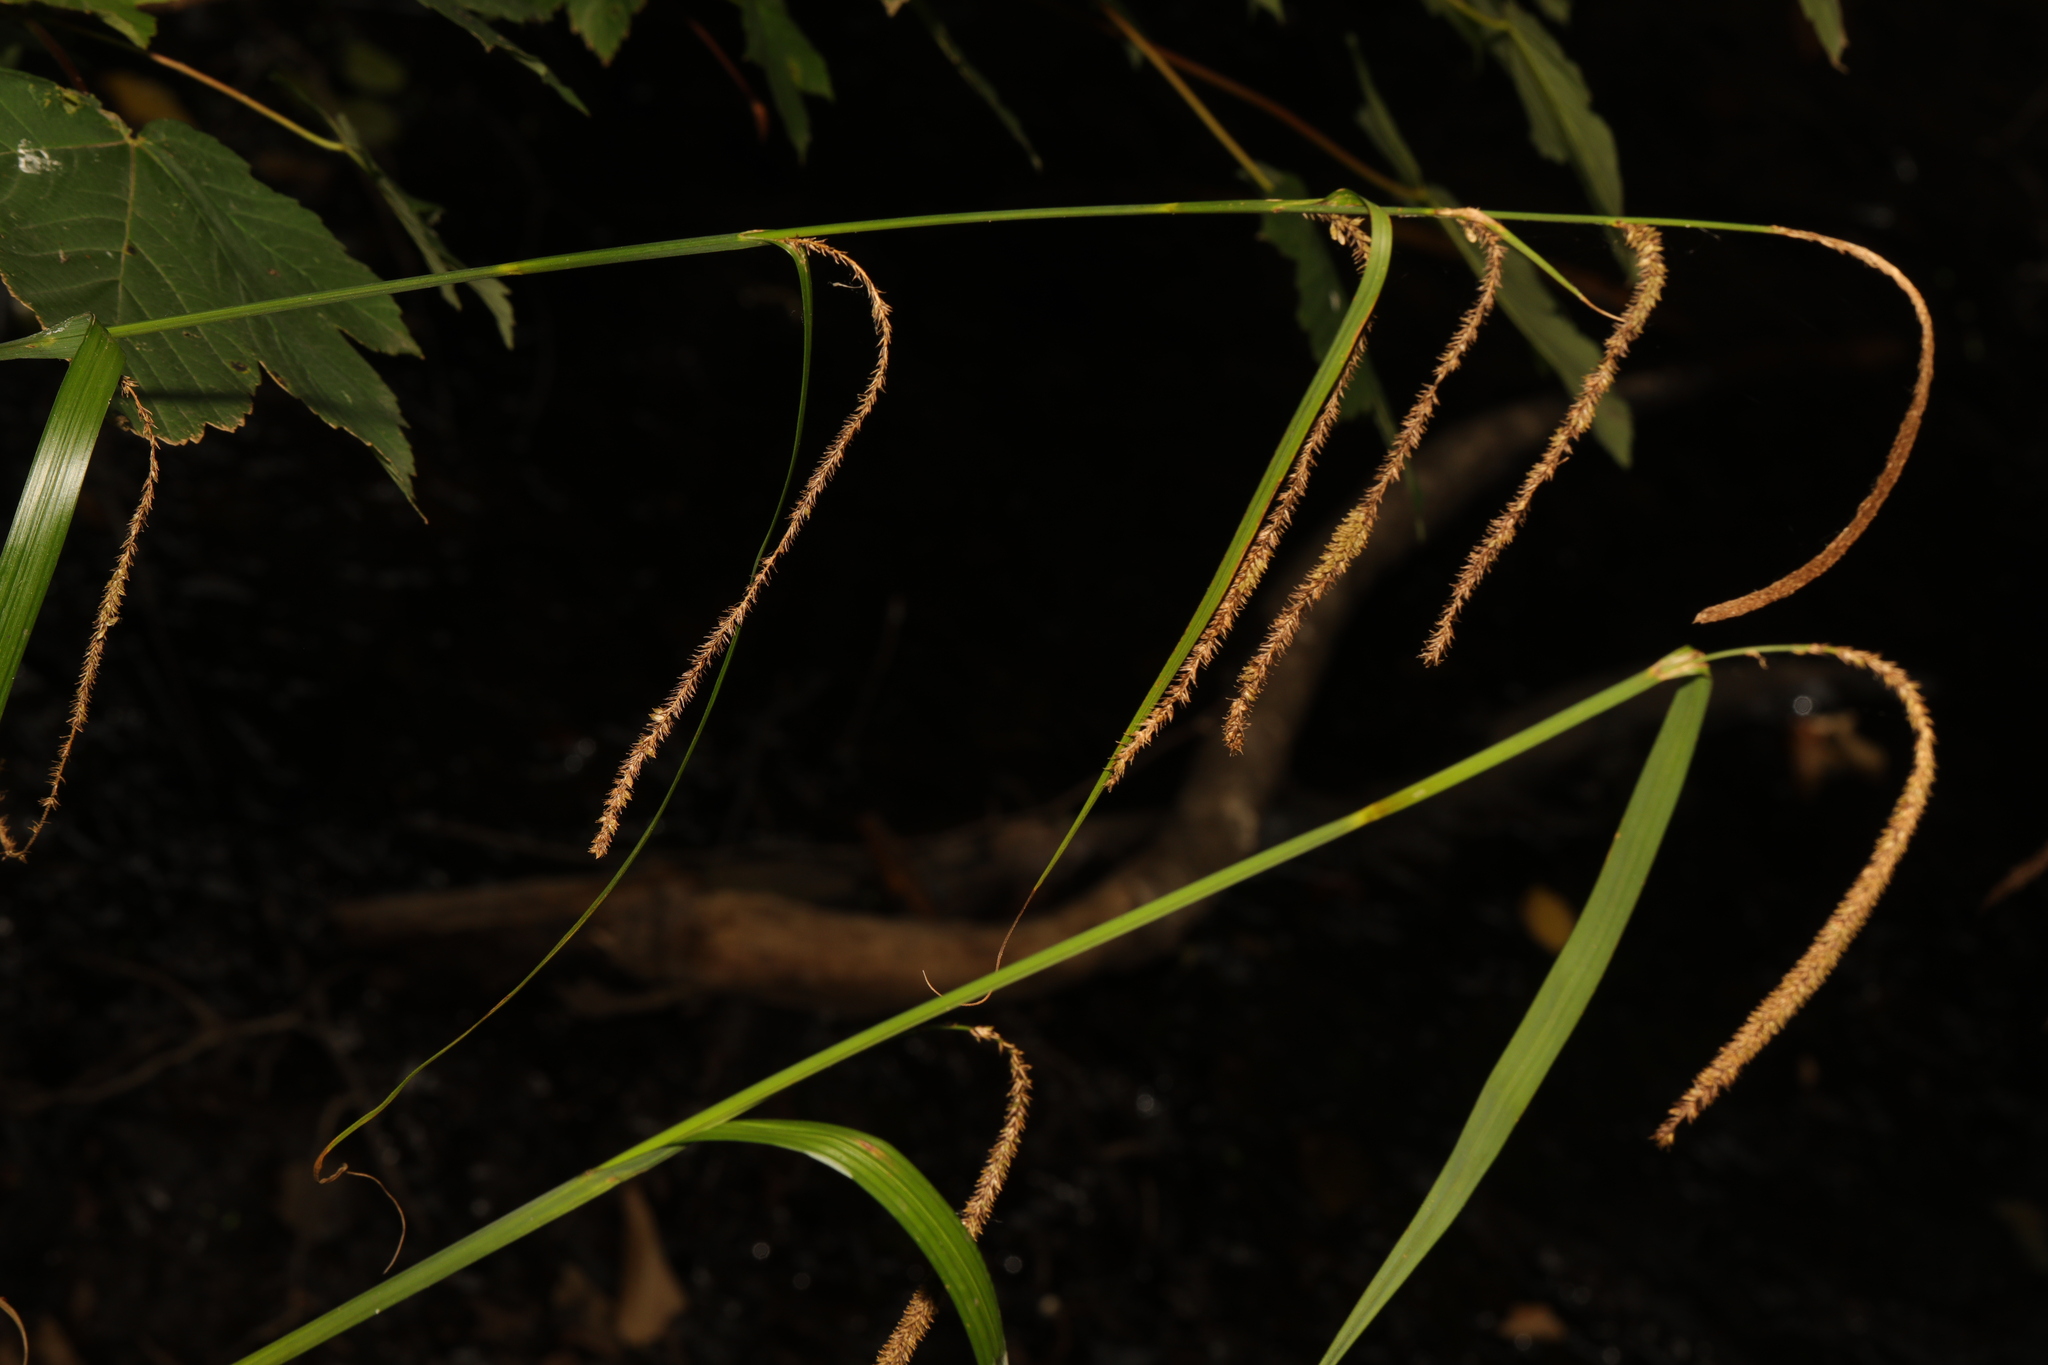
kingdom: Plantae
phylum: Tracheophyta
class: Liliopsida
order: Poales
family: Cyperaceae
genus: Carex
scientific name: Carex pendula
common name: Pendulous sedge
